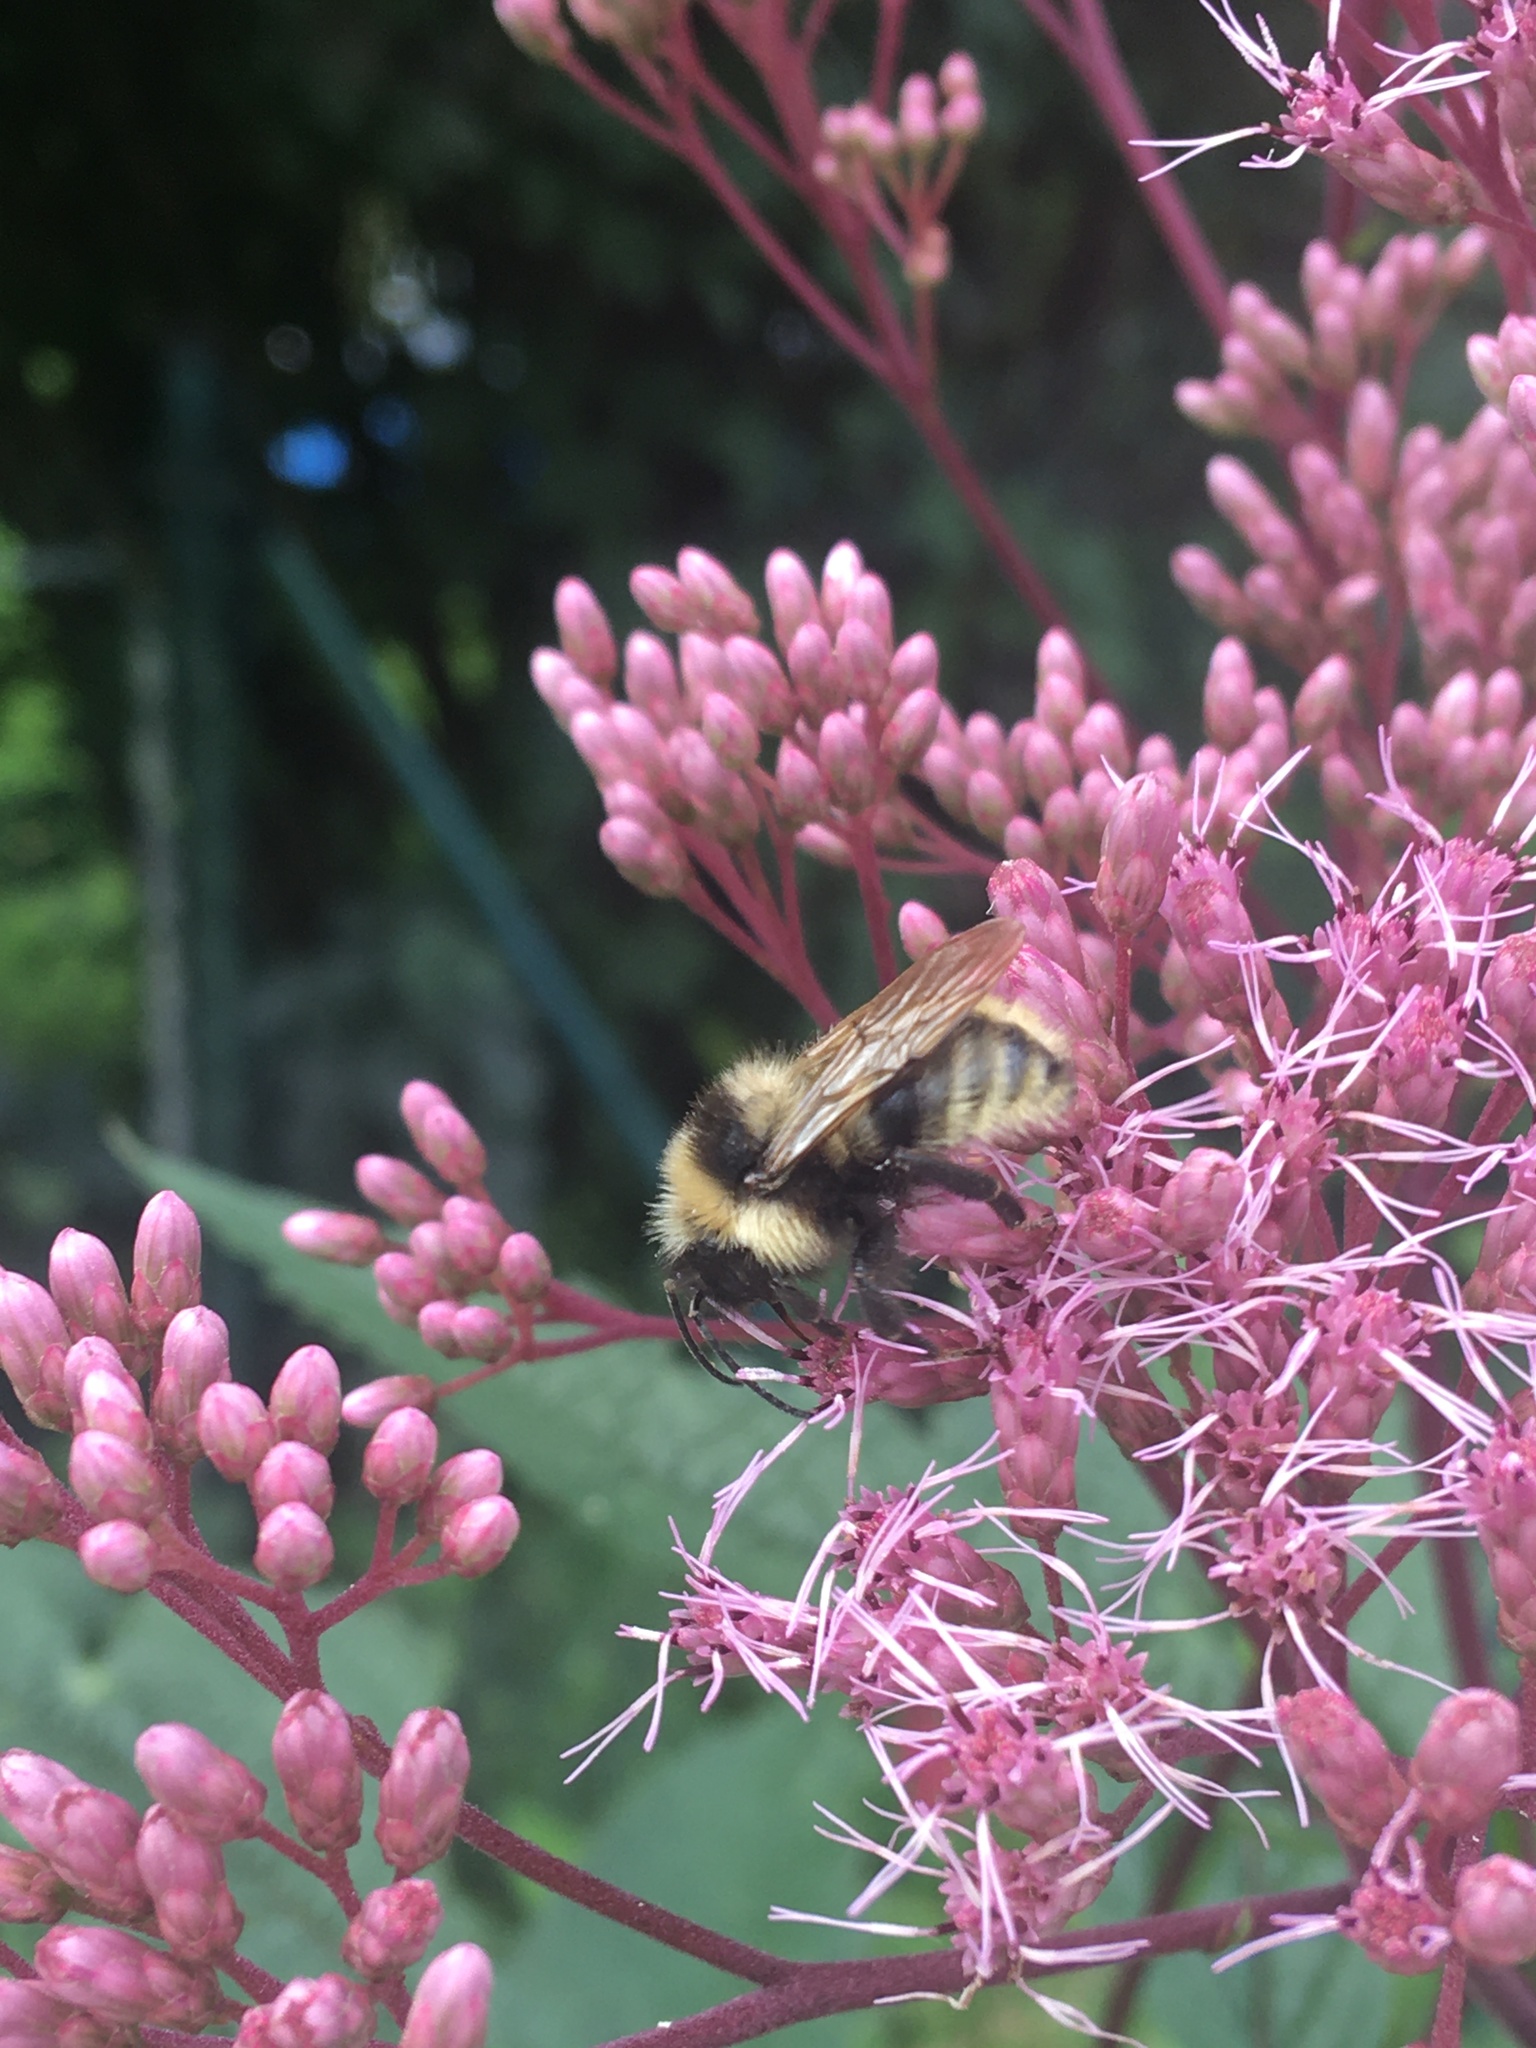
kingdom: Animalia
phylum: Arthropoda
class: Insecta
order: Hymenoptera
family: Apidae
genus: Bombus
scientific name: Bombus campestris
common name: Field cuckoo-bee
